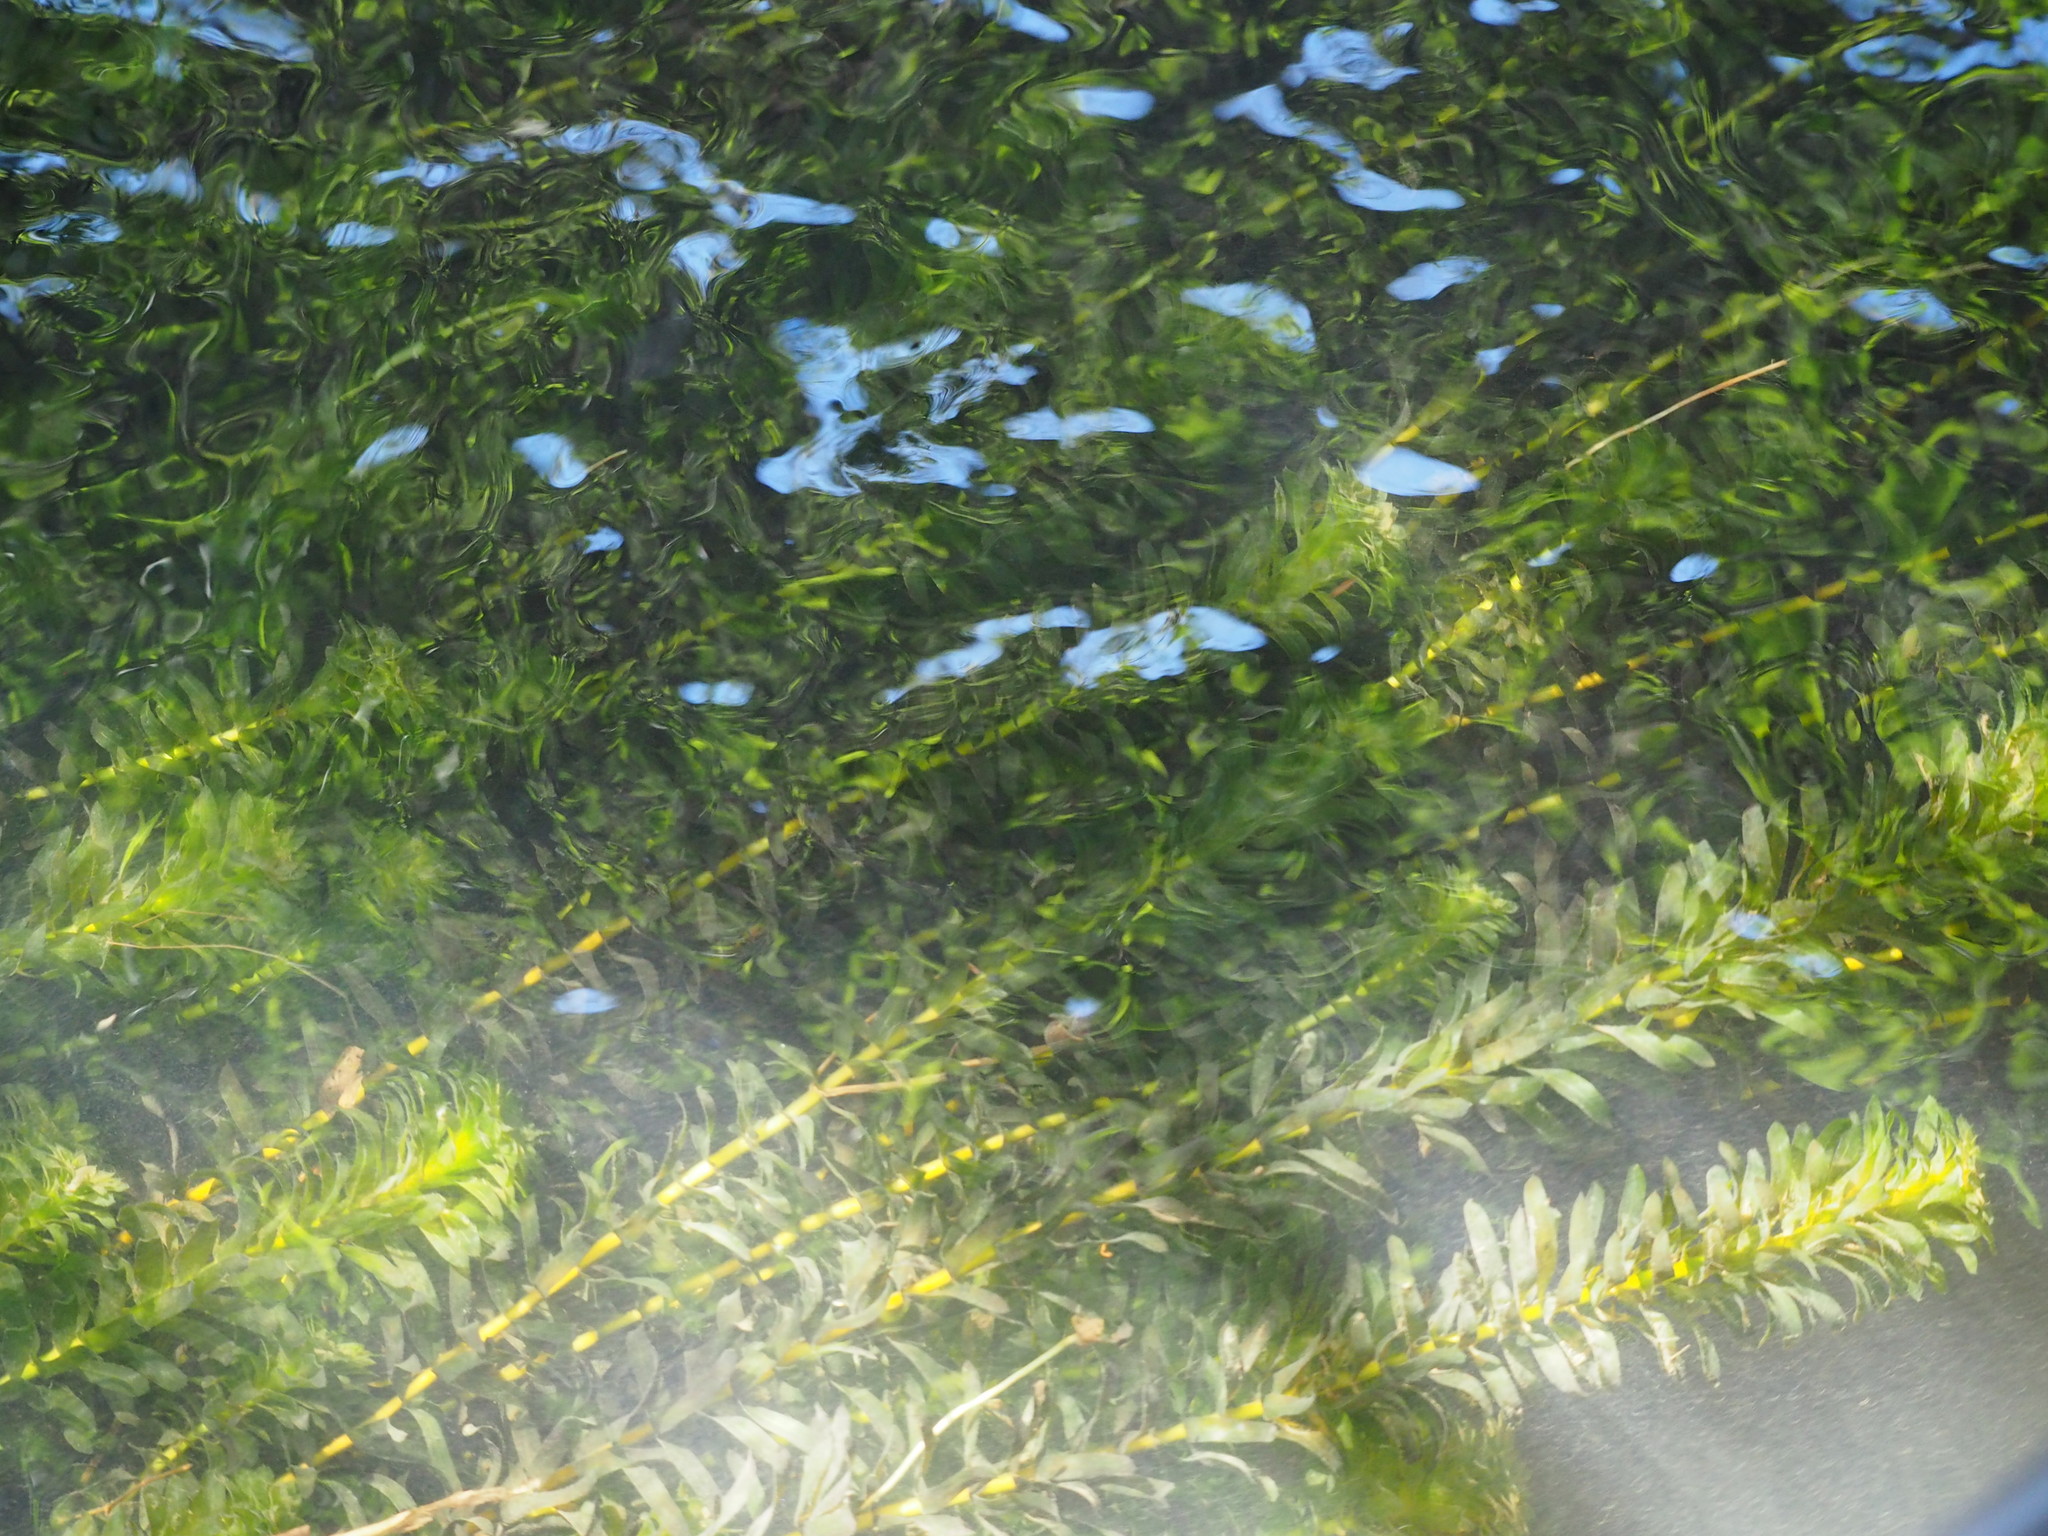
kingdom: Plantae
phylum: Tracheophyta
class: Liliopsida
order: Alismatales
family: Hydrocharitaceae
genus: Elodea
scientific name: Elodea densa
